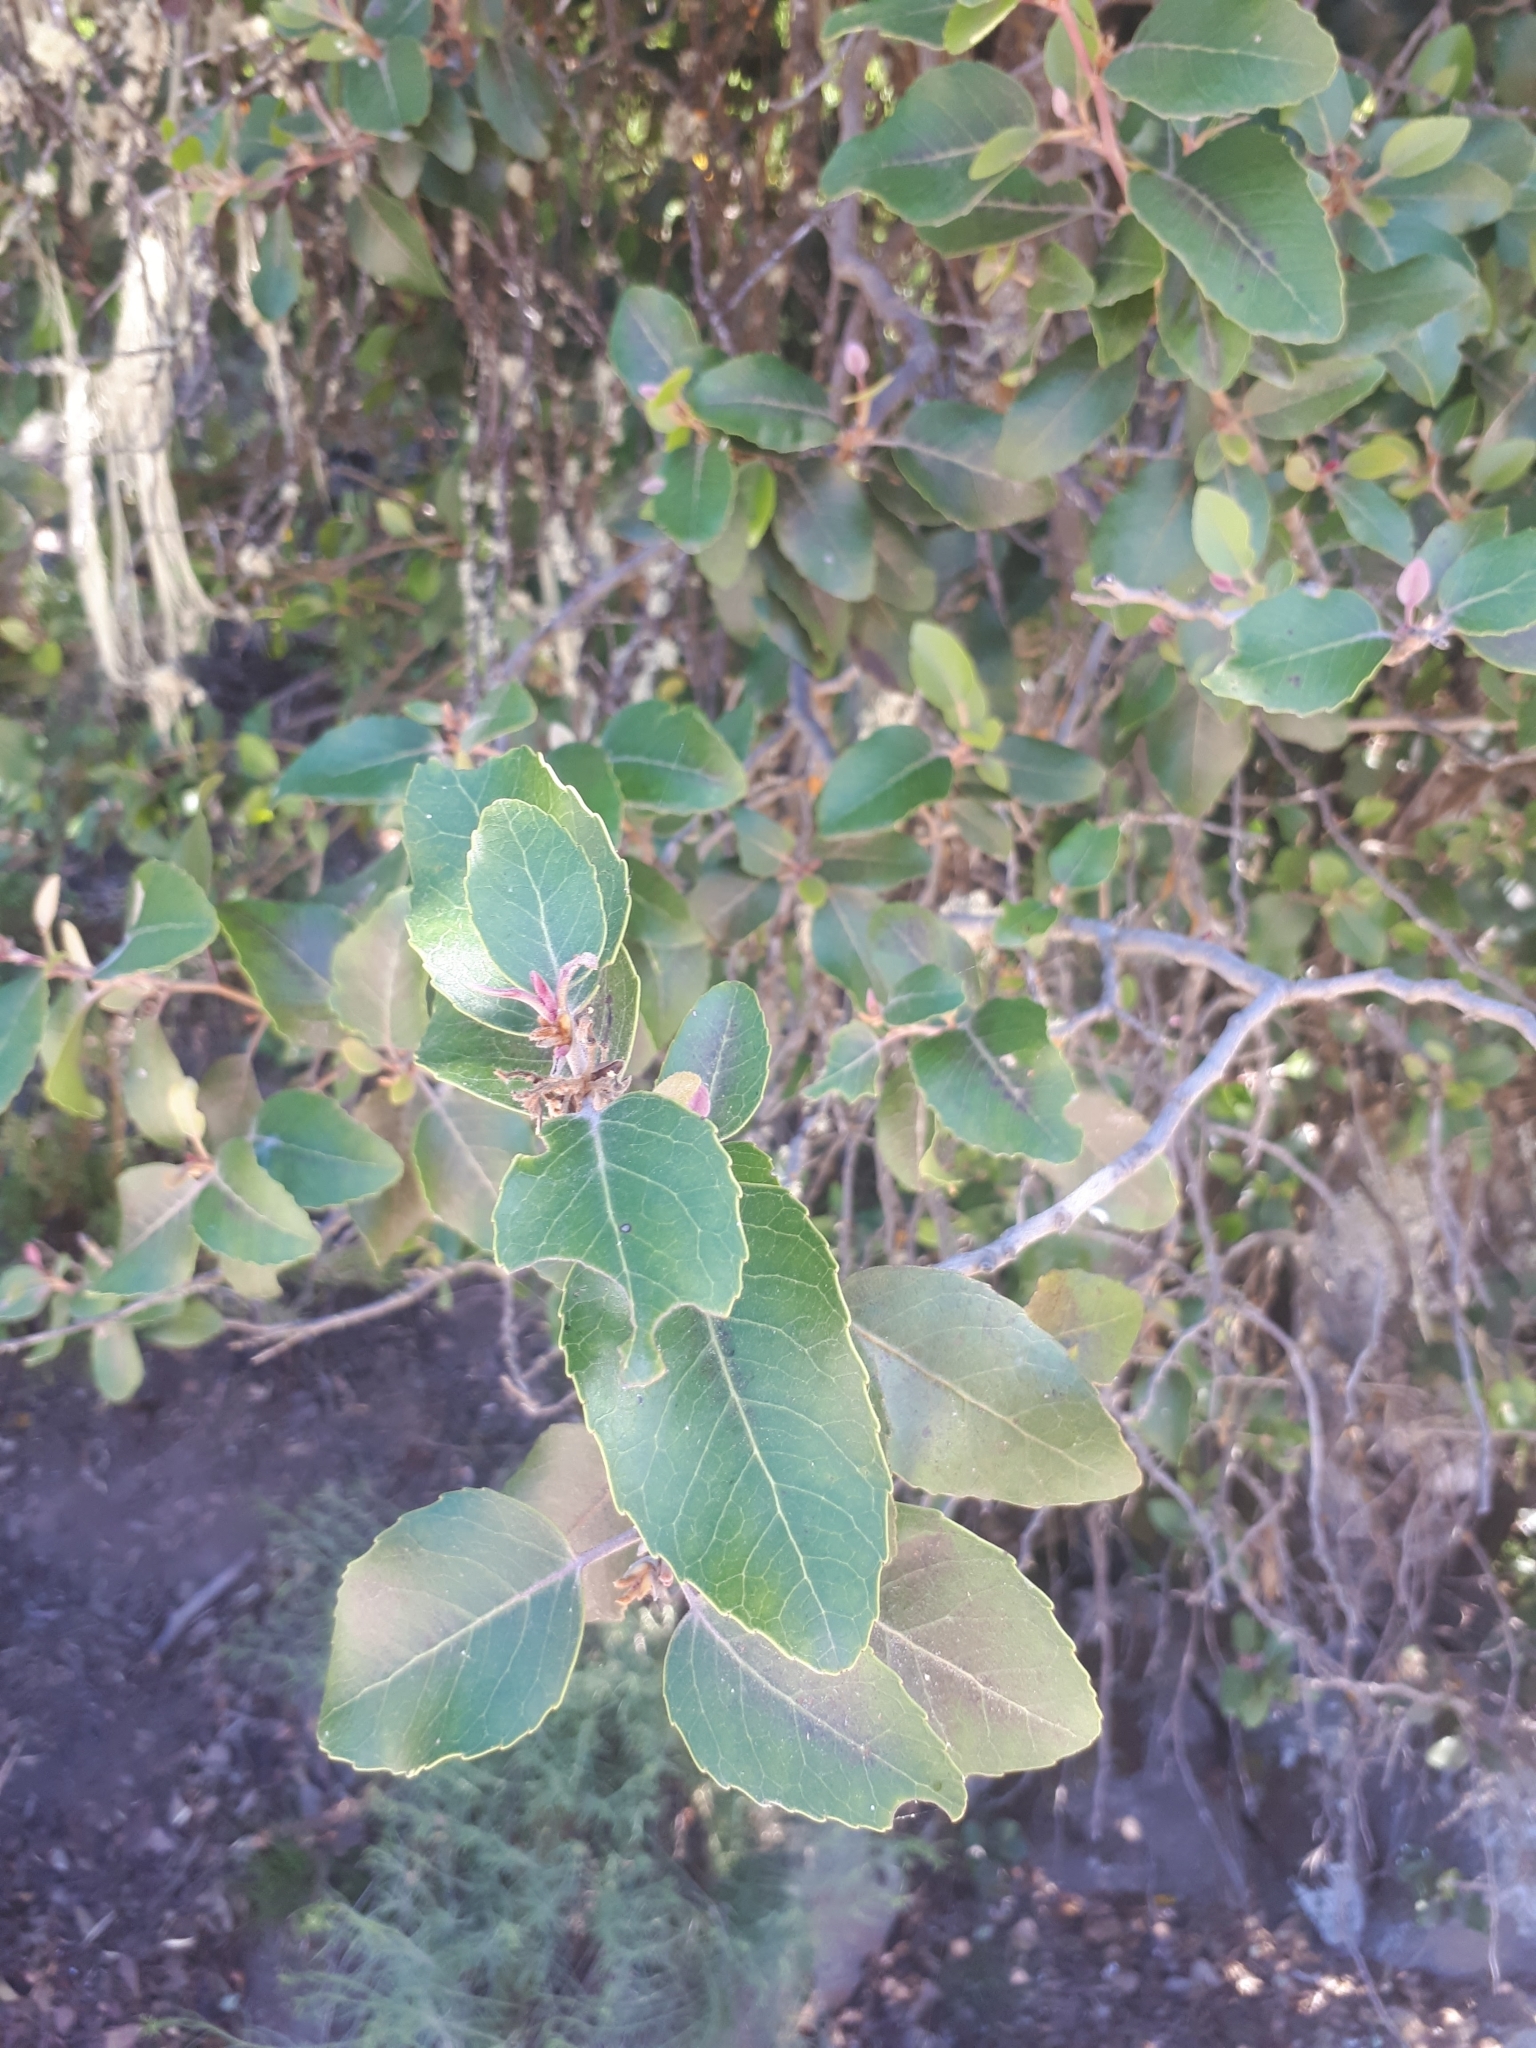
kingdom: Plantae
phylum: Tracheophyta
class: Magnoliopsida
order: Proteales
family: Proteaceae
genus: Lomatia
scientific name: Lomatia hirsuta
